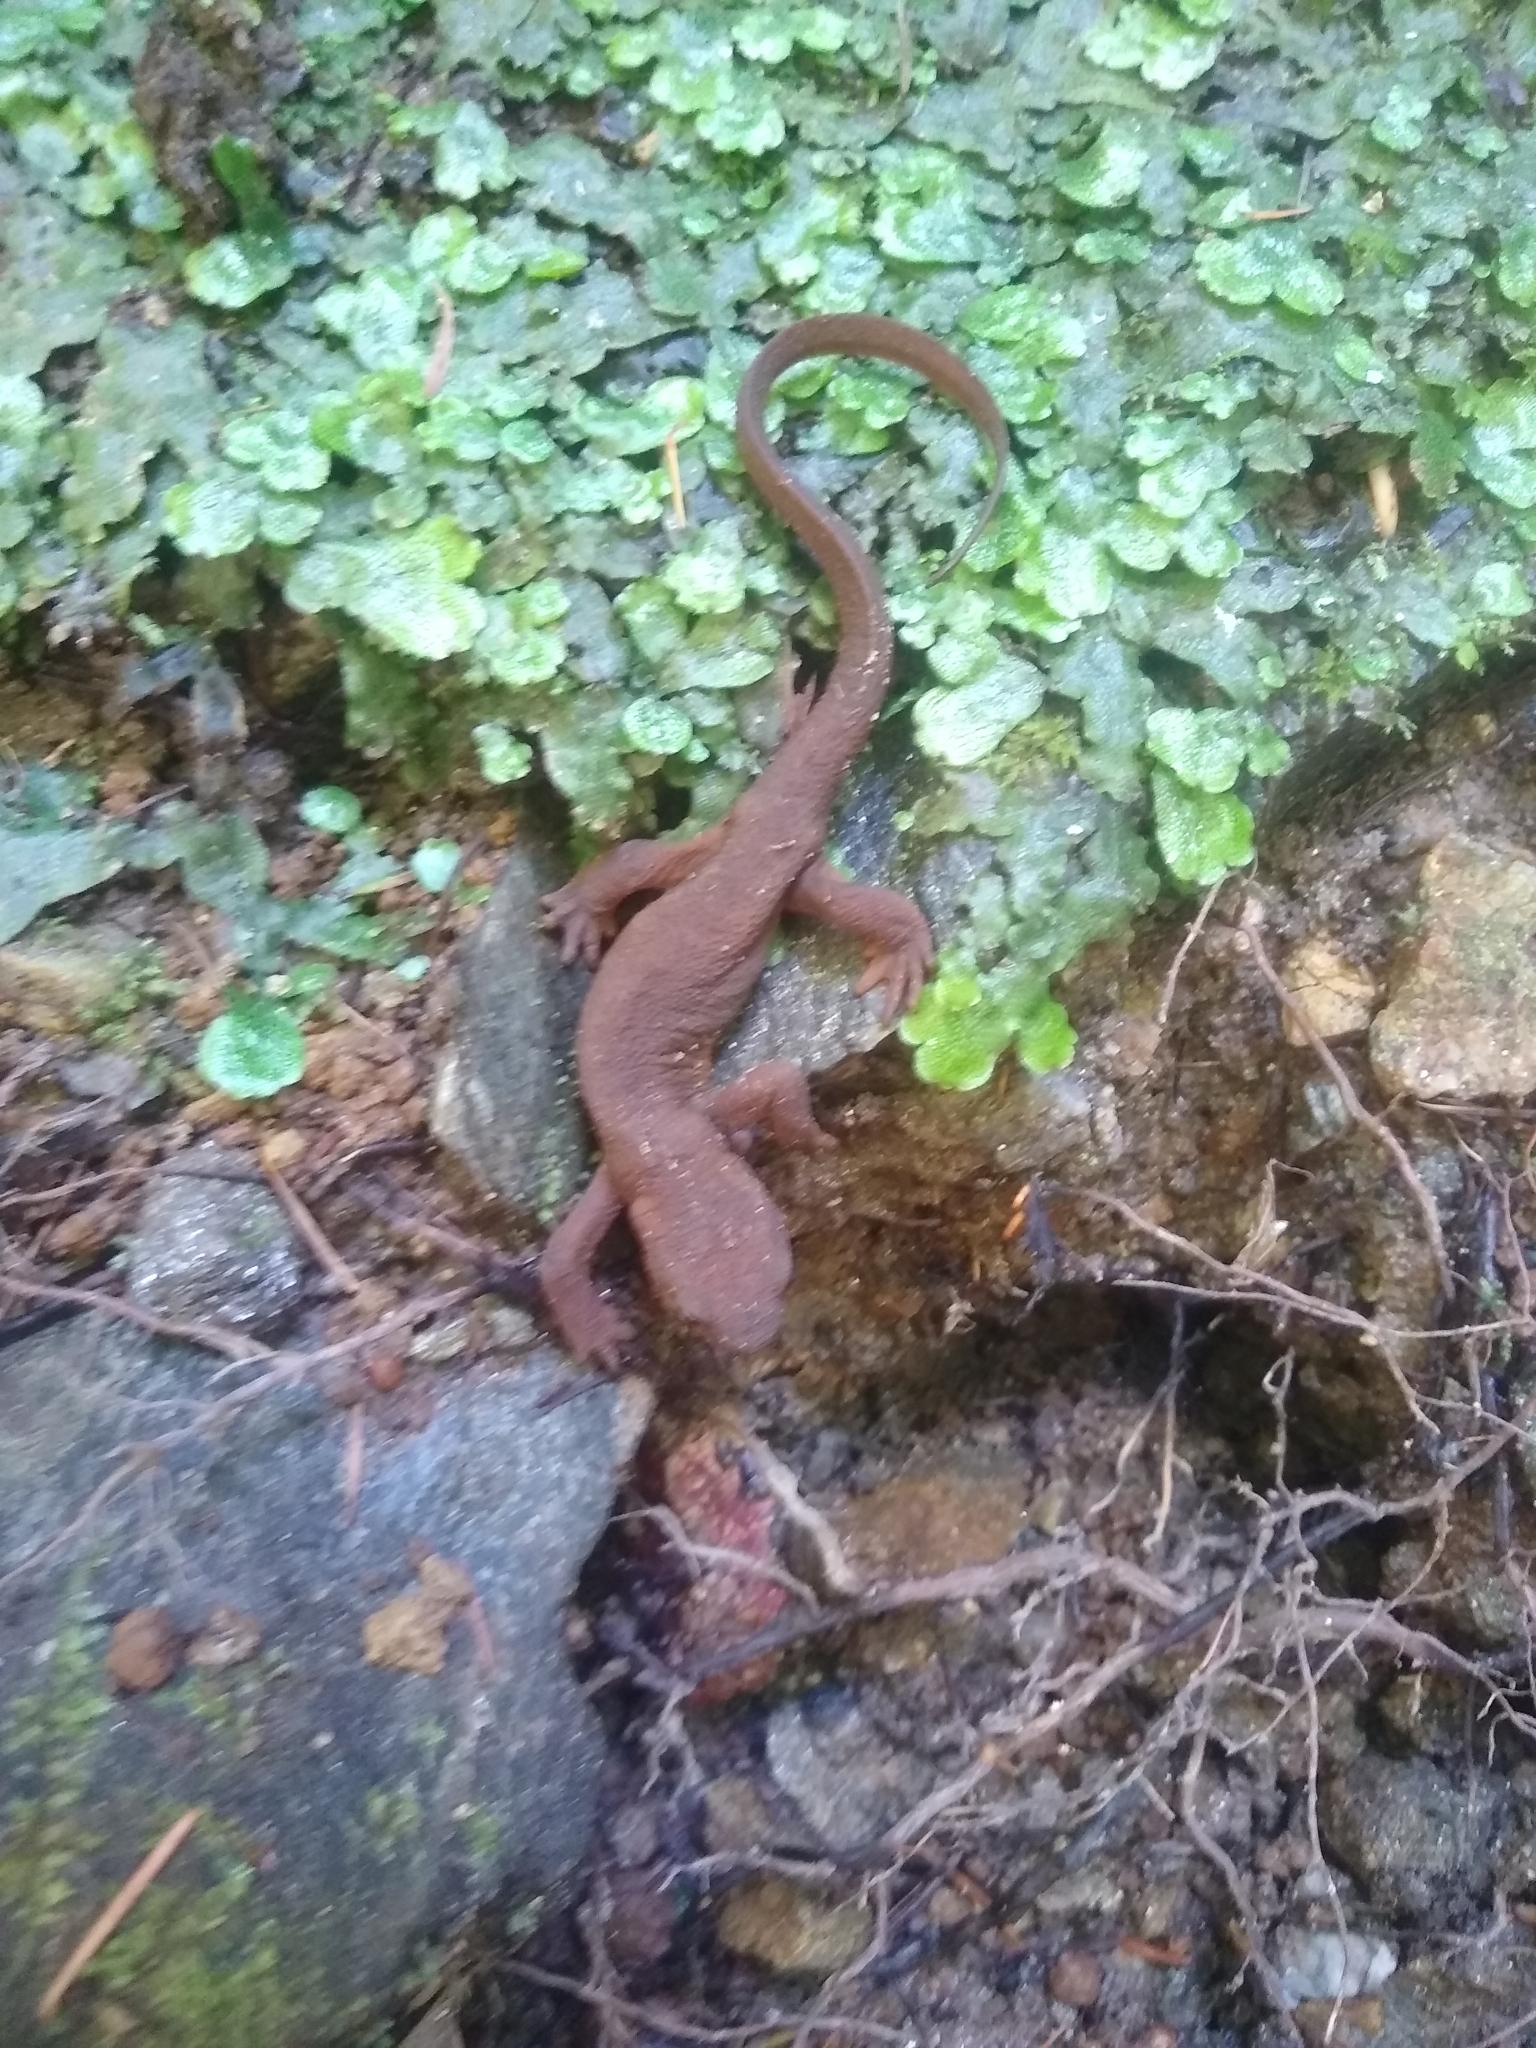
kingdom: Plantae
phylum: Marchantiophyta
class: Marchantiopsida
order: Marchantiales
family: Conocephalaceae
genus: Conocephalum
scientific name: Conocephalum salebrosum
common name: Cat-tongue liverwort
